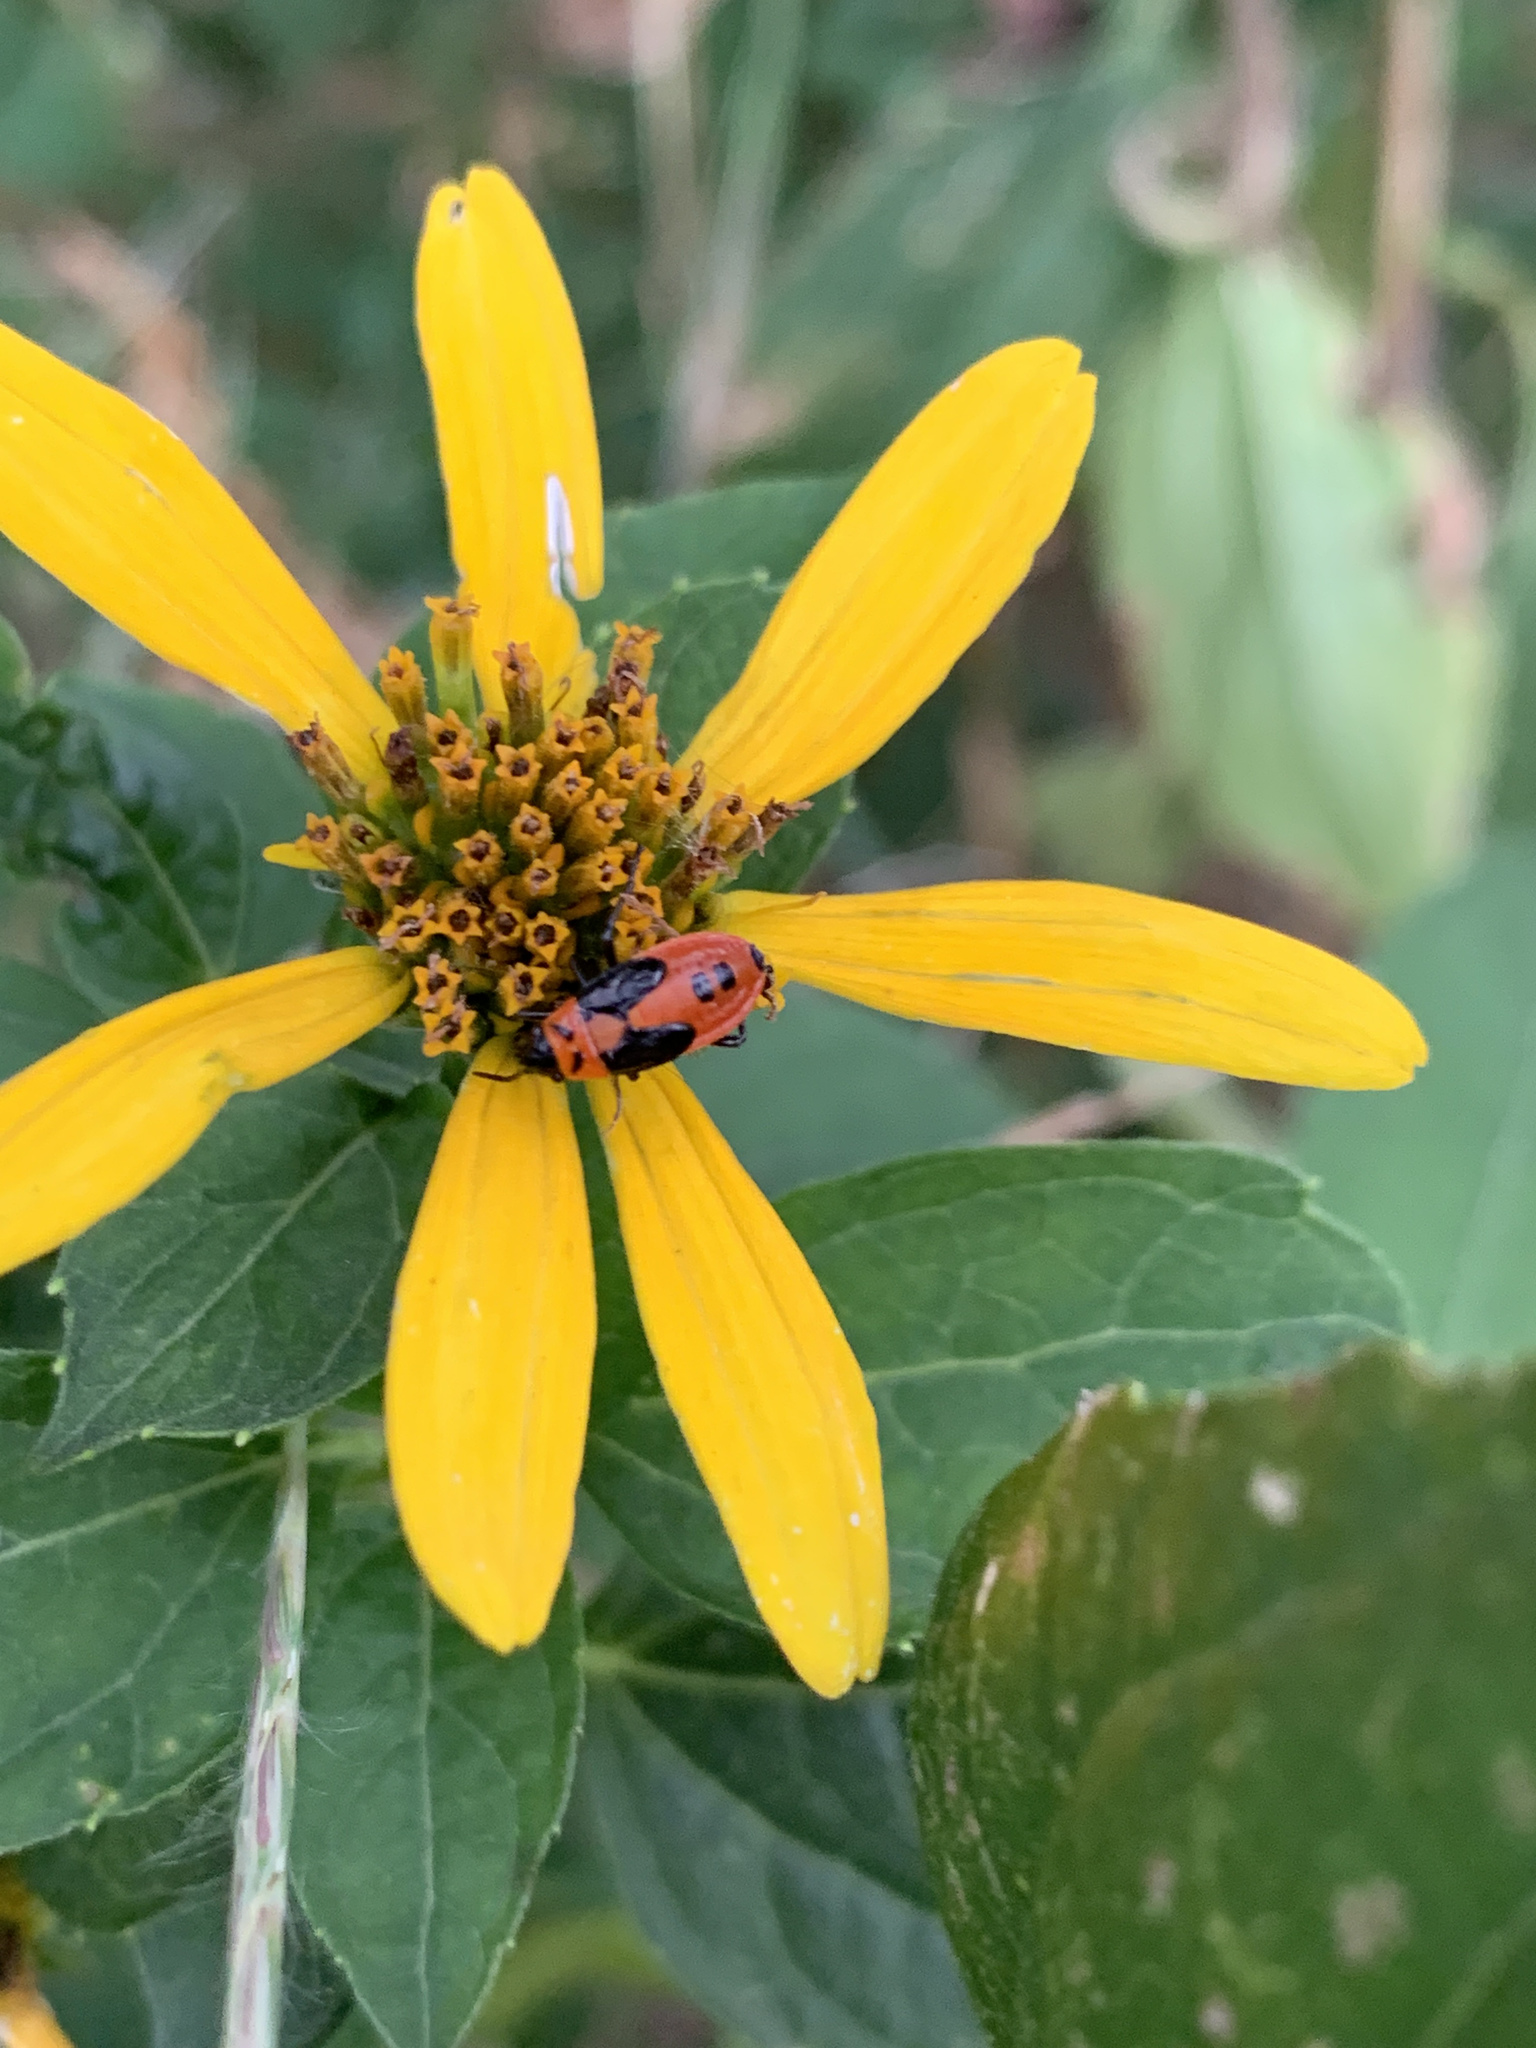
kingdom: Animalia
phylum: Arthropoda
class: Insecta
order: Hemiptera
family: Lygaeidae
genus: Lygaeus
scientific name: Lygaeus turcicus
